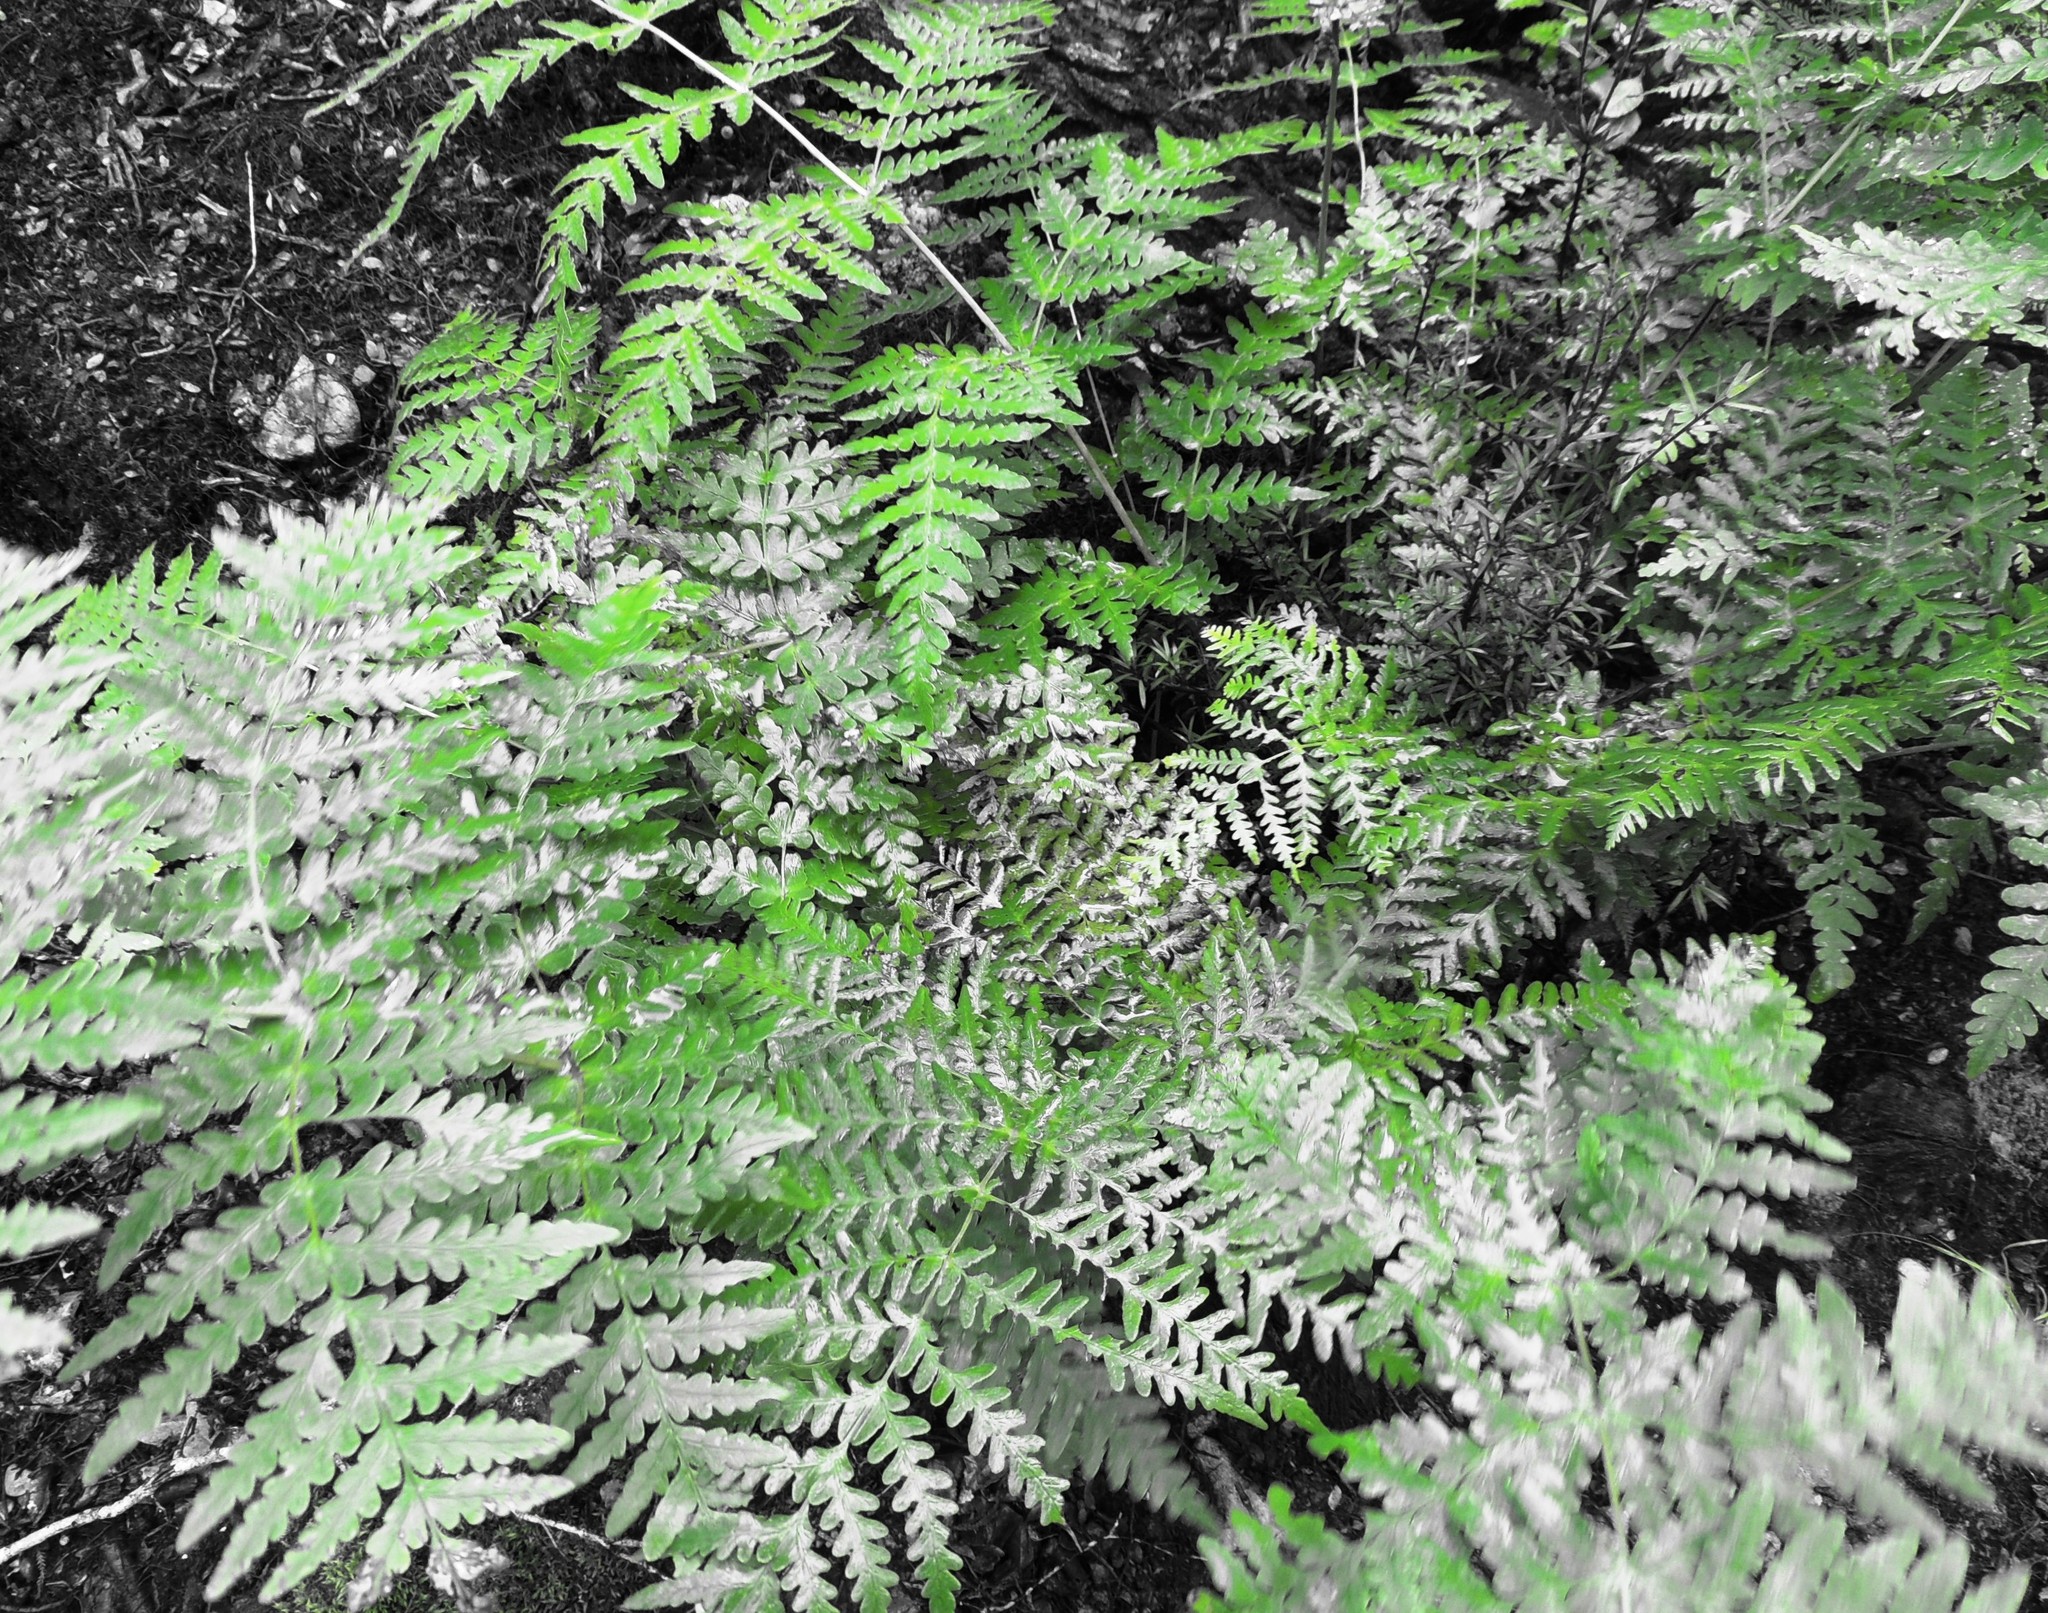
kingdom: Plantae
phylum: Tracheophyta
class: Polypodiopsida
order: Polypodiales
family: Dennstaedtiaceae
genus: Histiopteris
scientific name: Histiopteris incisa
